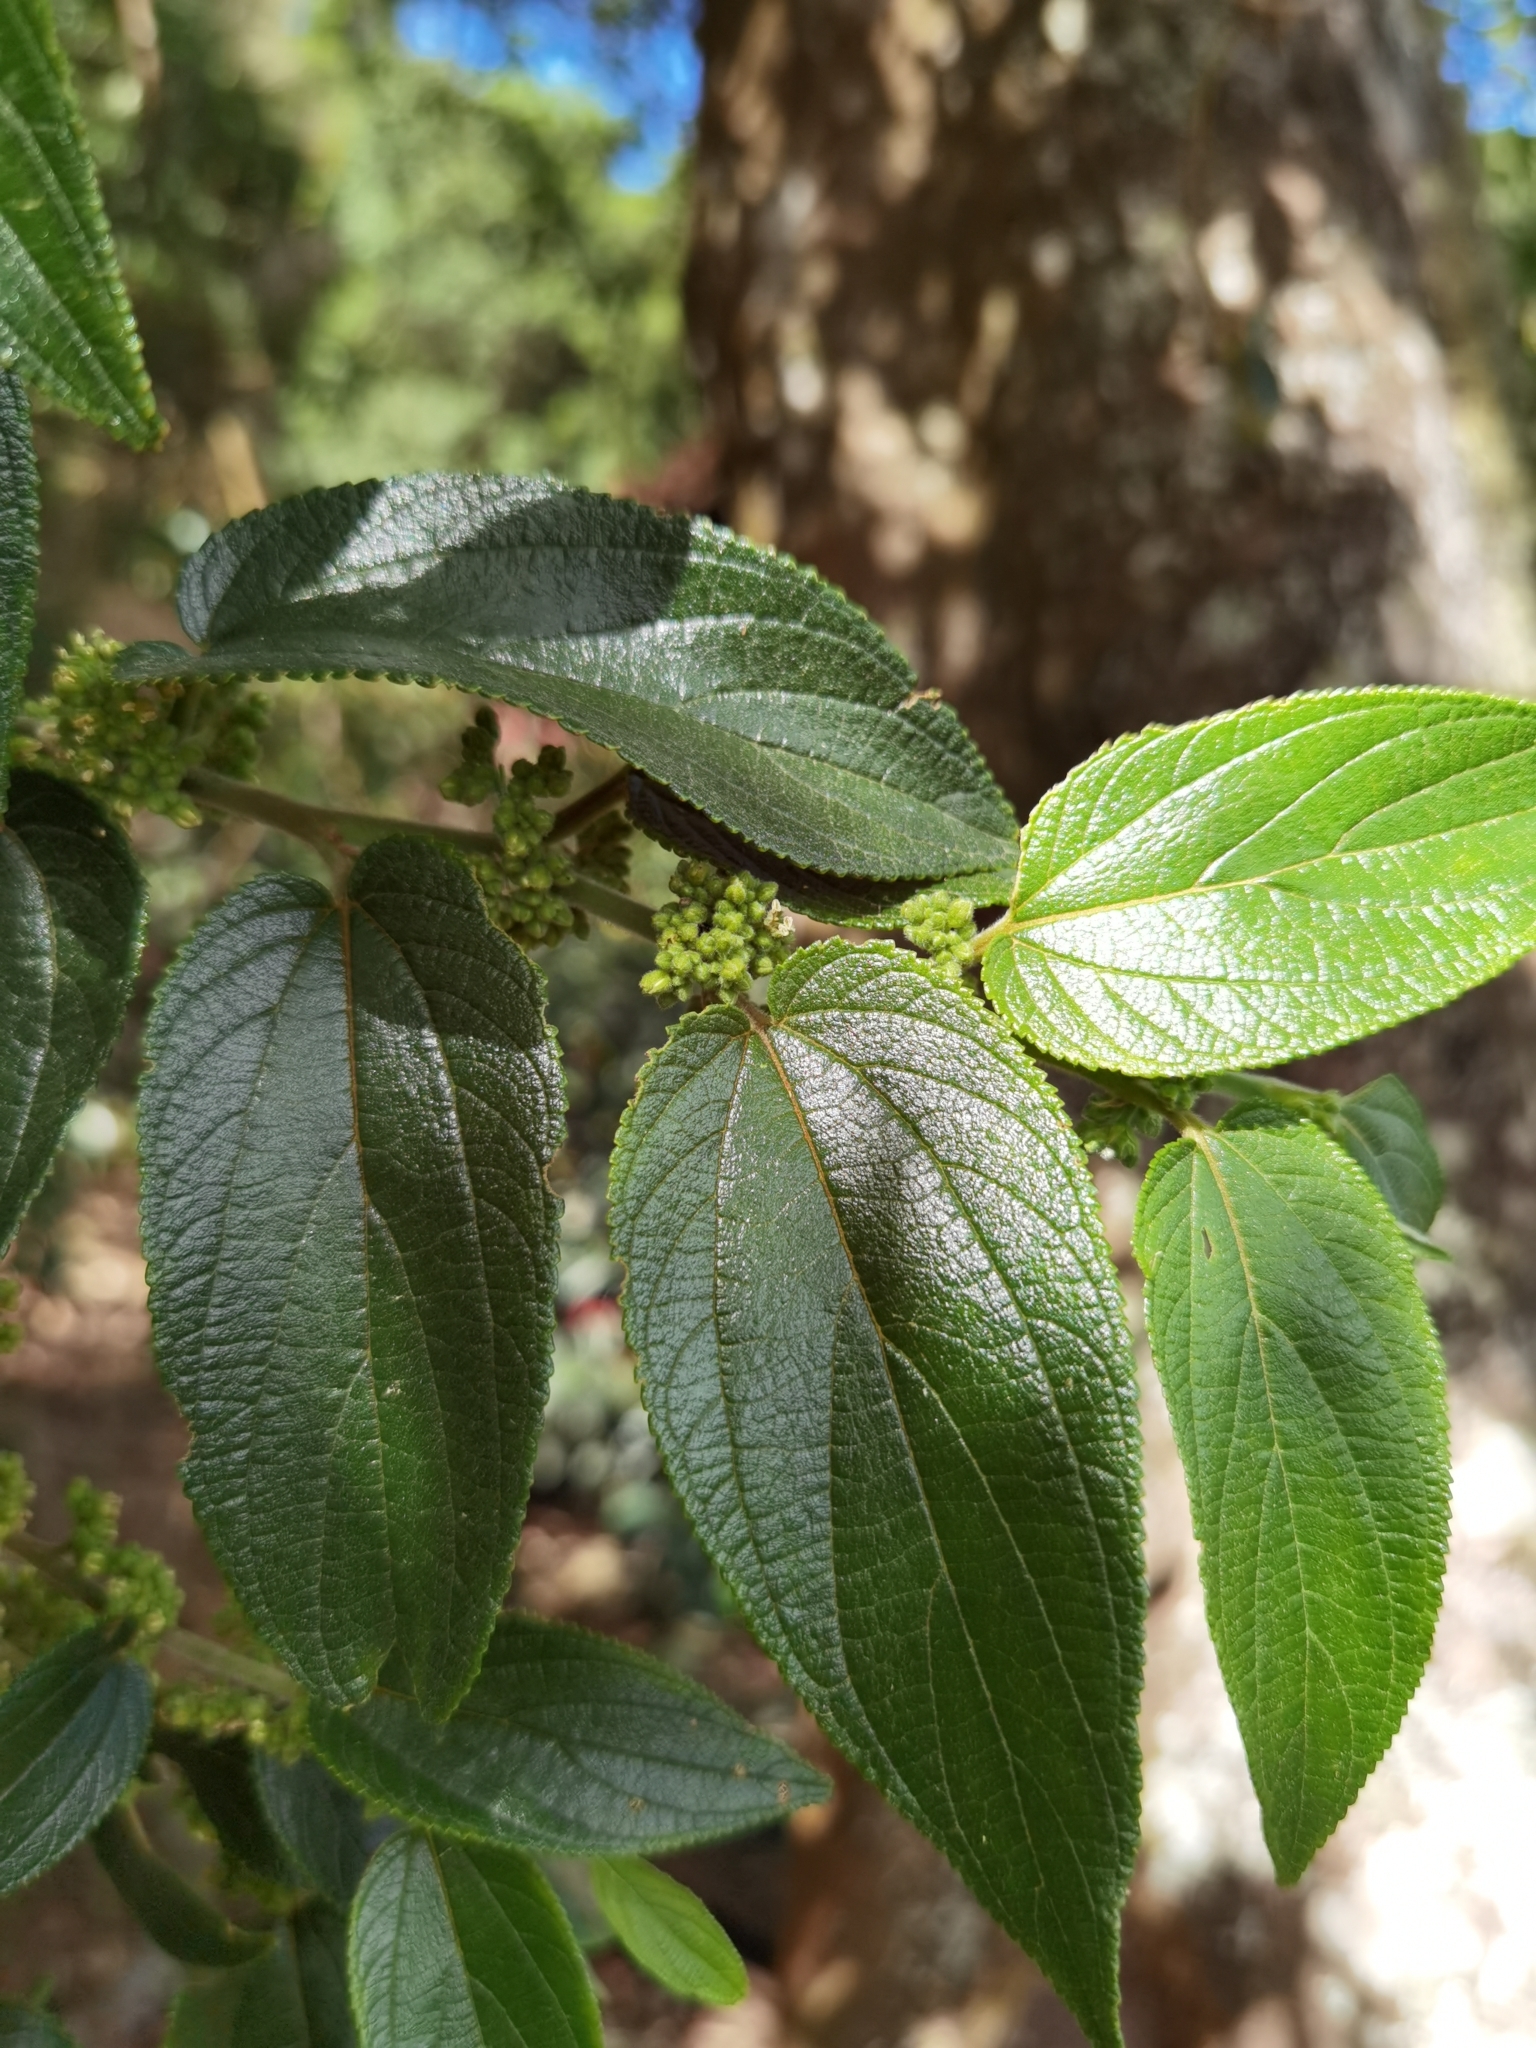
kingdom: Plantae
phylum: Tracheophyta
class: Magnoliopsida
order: Rosales
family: Cannabaceae
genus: Trema
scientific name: Trema micranthum
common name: Jamaican nettletree
